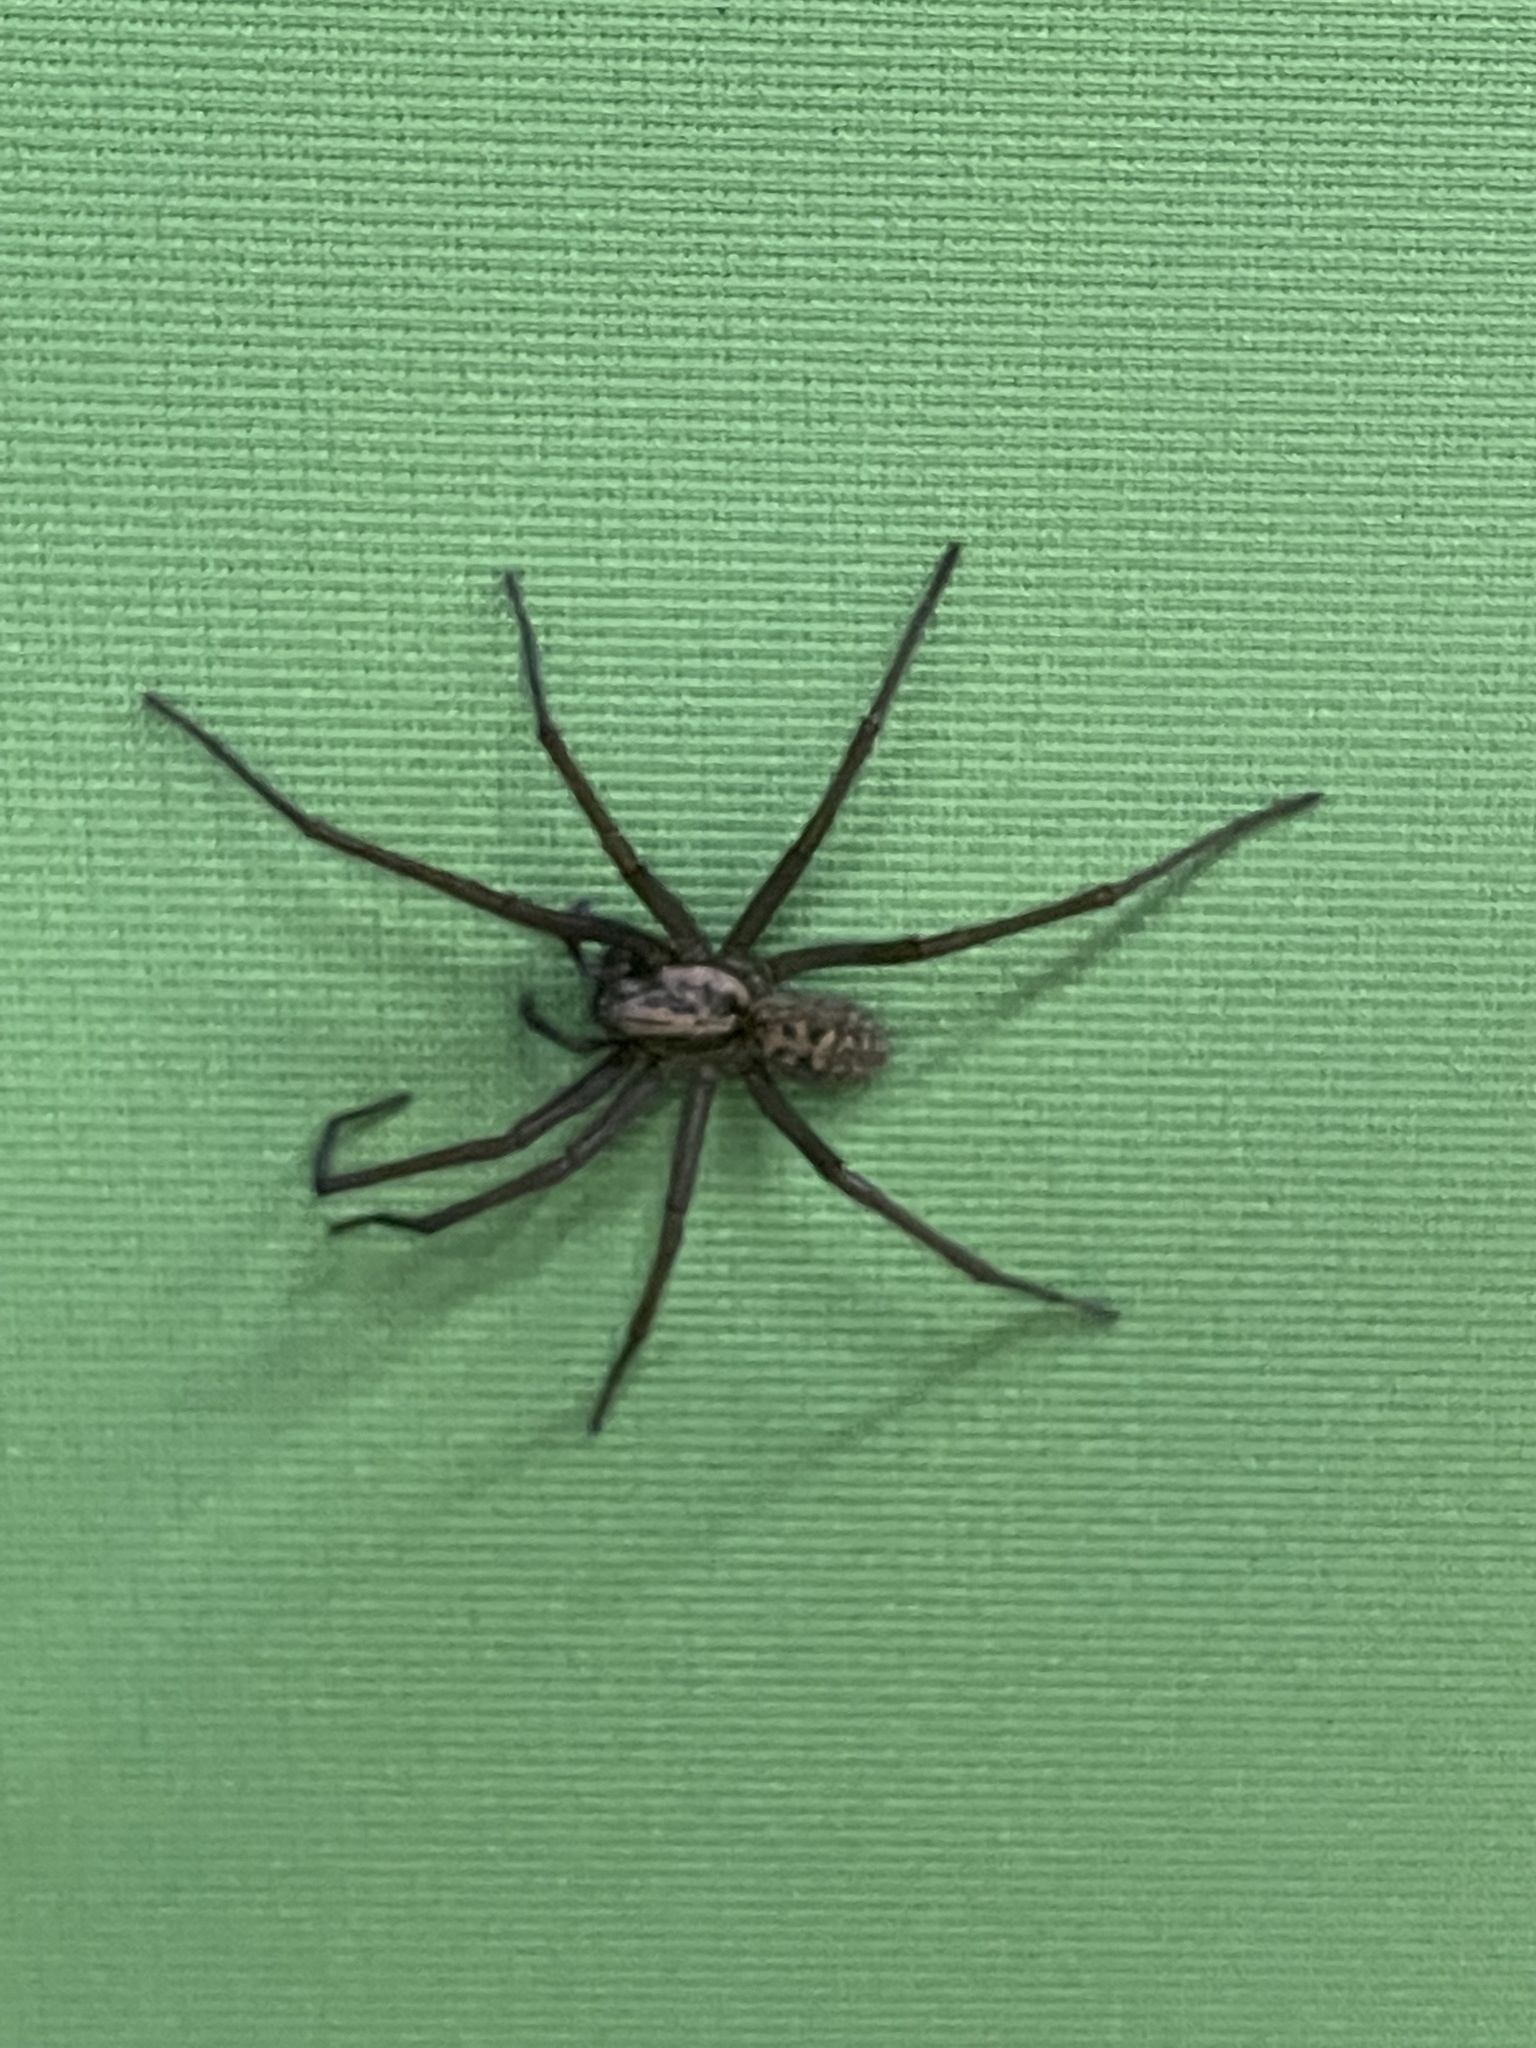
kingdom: Animalia
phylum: Arthropoda
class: Arachnida
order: Araneae
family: Agelenidae
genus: Eratigena
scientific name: Eratigena duellica
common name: Giant house spider
